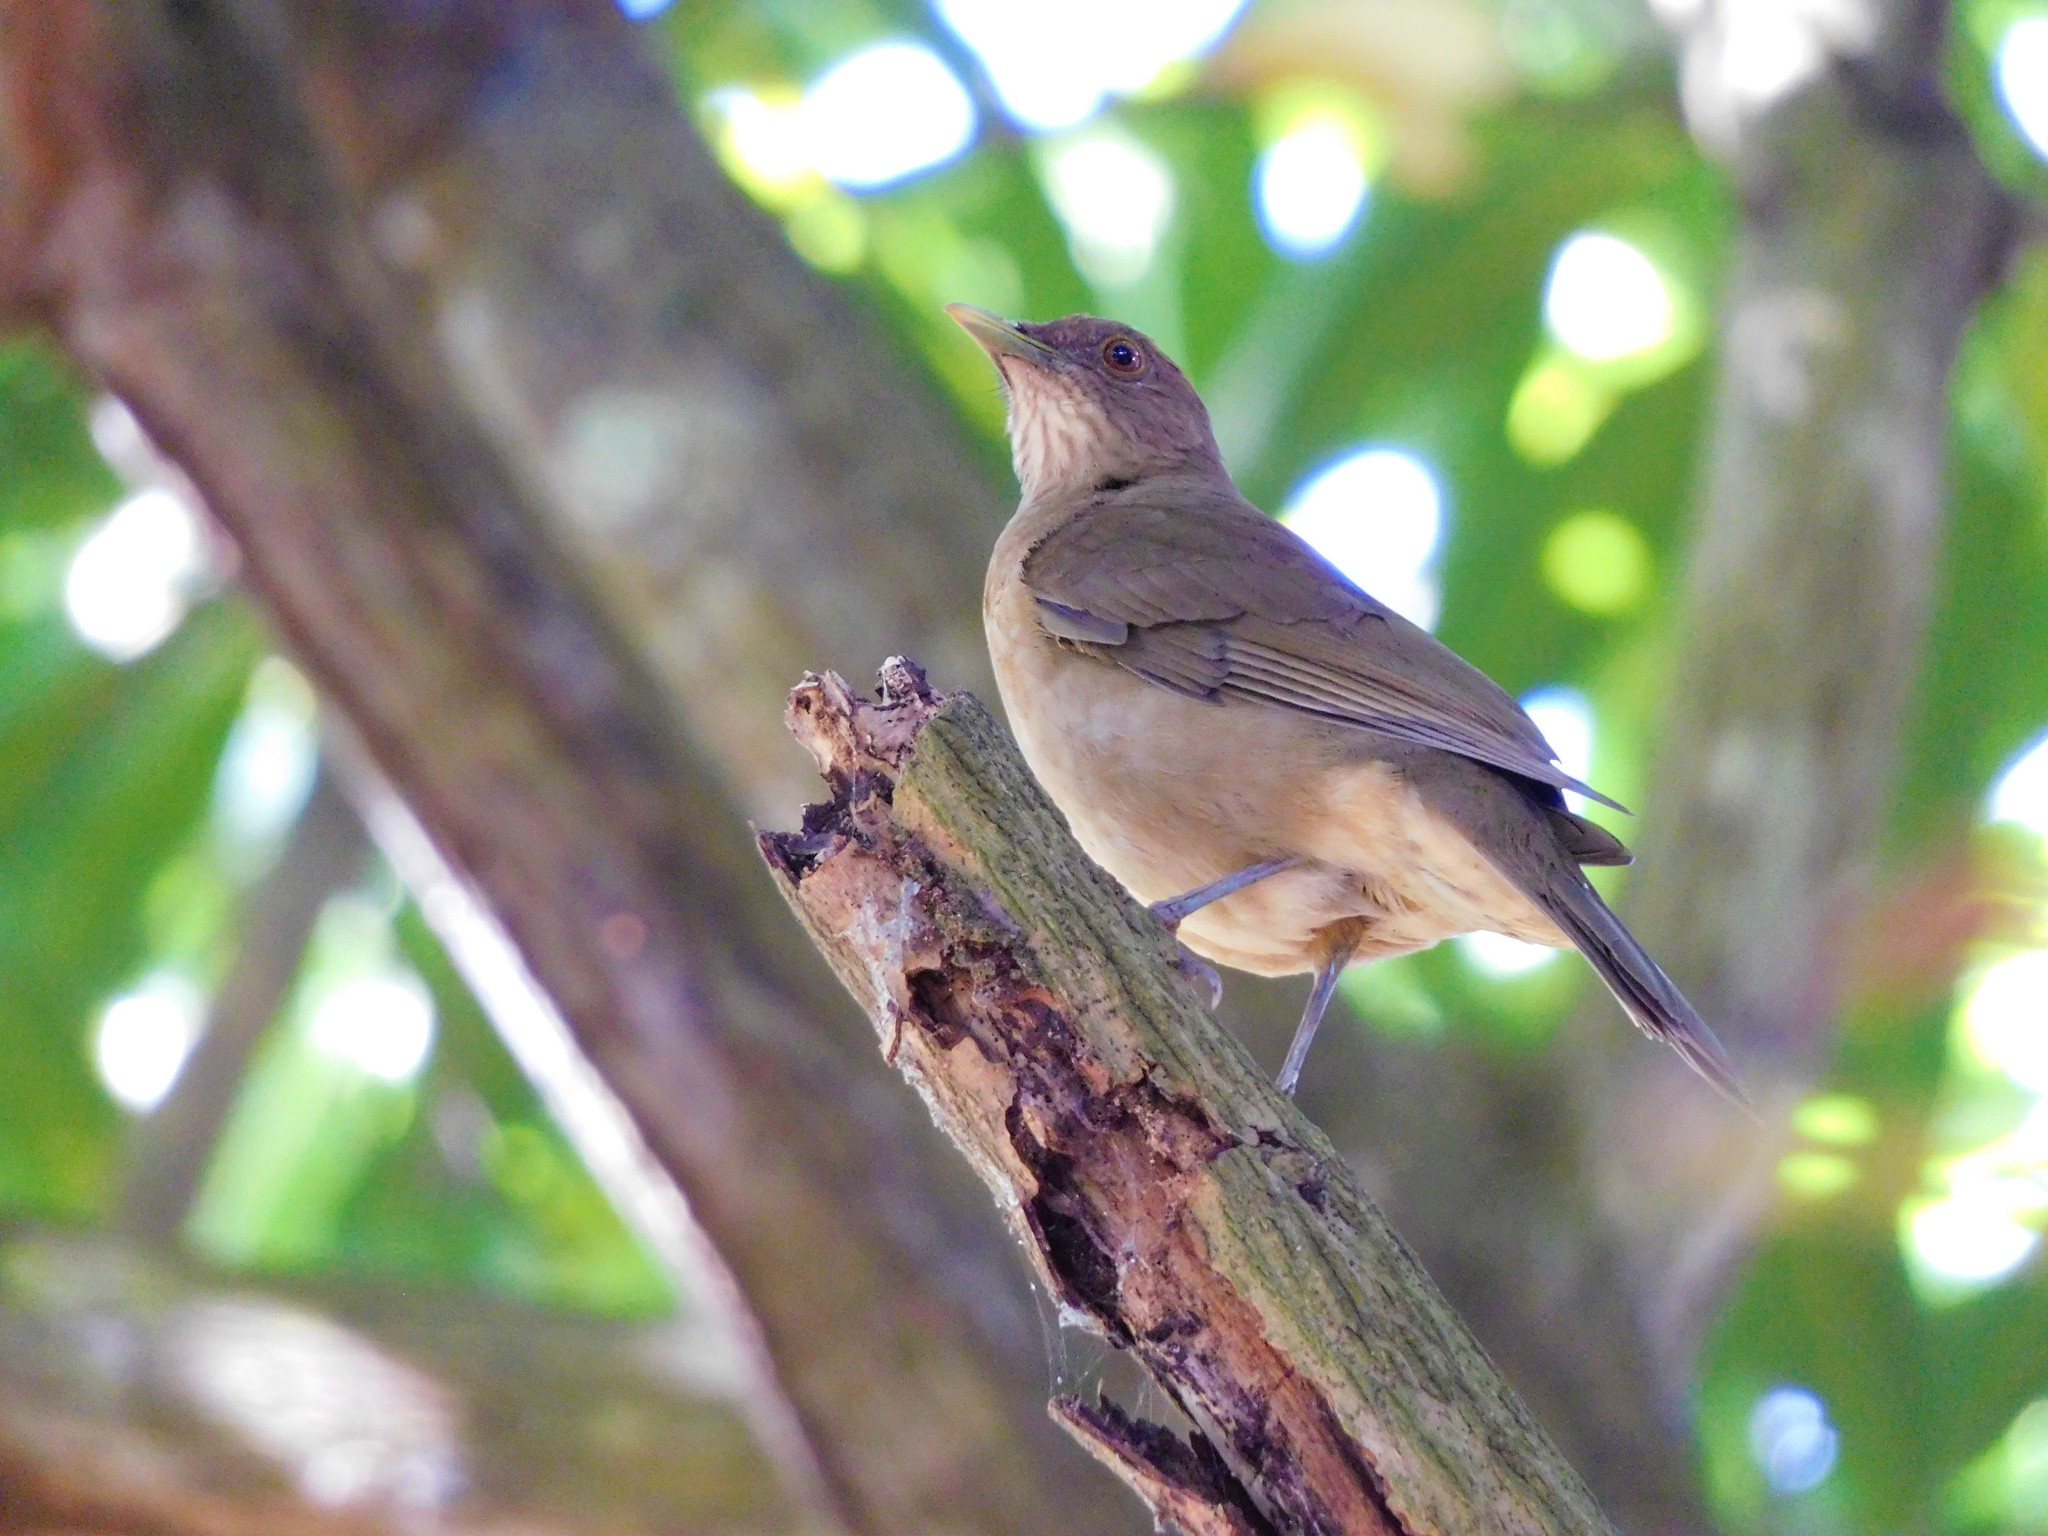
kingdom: Animalia
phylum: Chordata
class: Aves
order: Passeriformes
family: Turdidae
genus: Turdus
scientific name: Turdus grayi
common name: Clay-colored thrush
